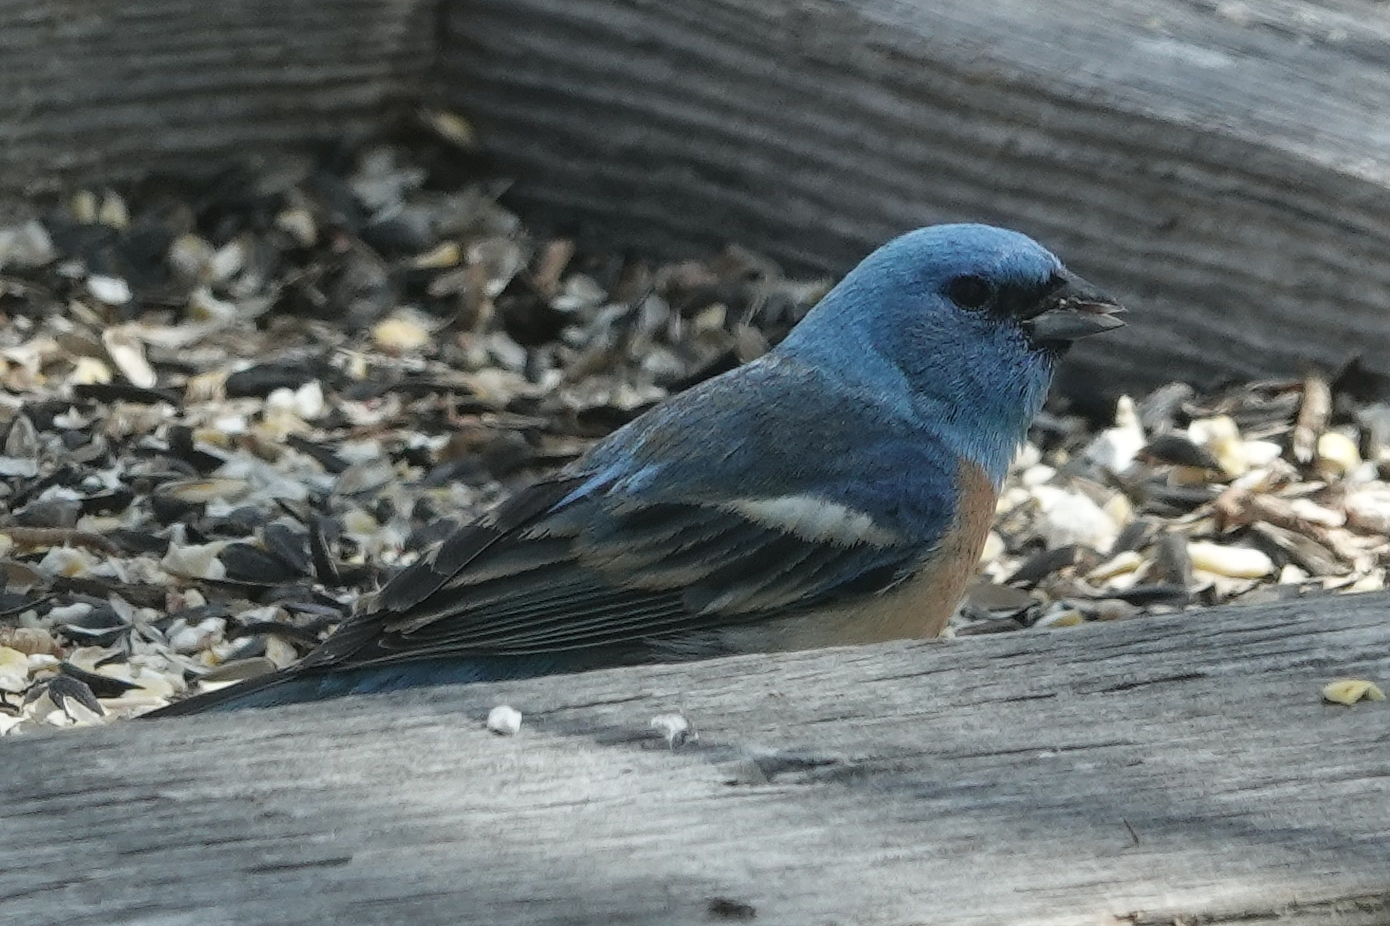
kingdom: Animalia
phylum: Chordata
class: Aves
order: Passeriformes
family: Cardinalidae
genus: Passerina
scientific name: Passerina amoena
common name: Lazuli bunting
